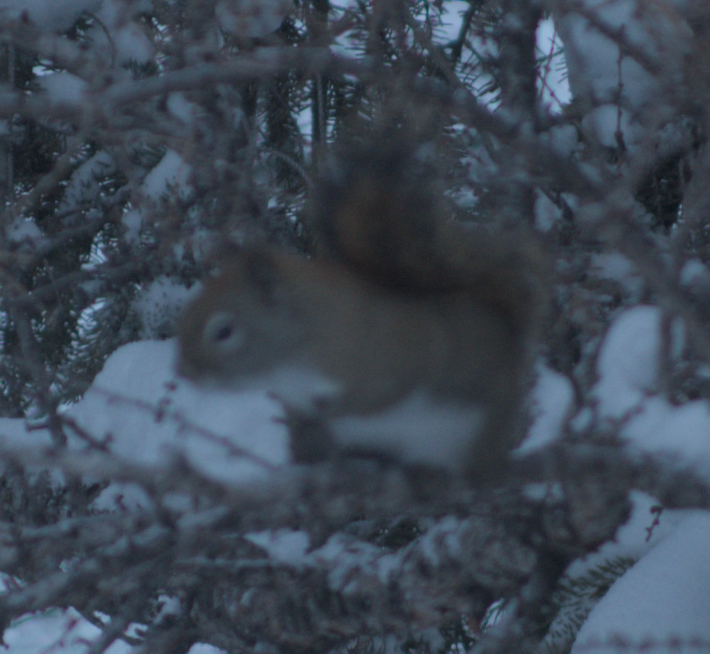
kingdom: Animalia
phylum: Chordata
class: Mammalia
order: Rodentia
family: Sciuridae
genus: Tamiasciurus
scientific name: Tamiasciurus hudsonicus
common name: Red squirrel
